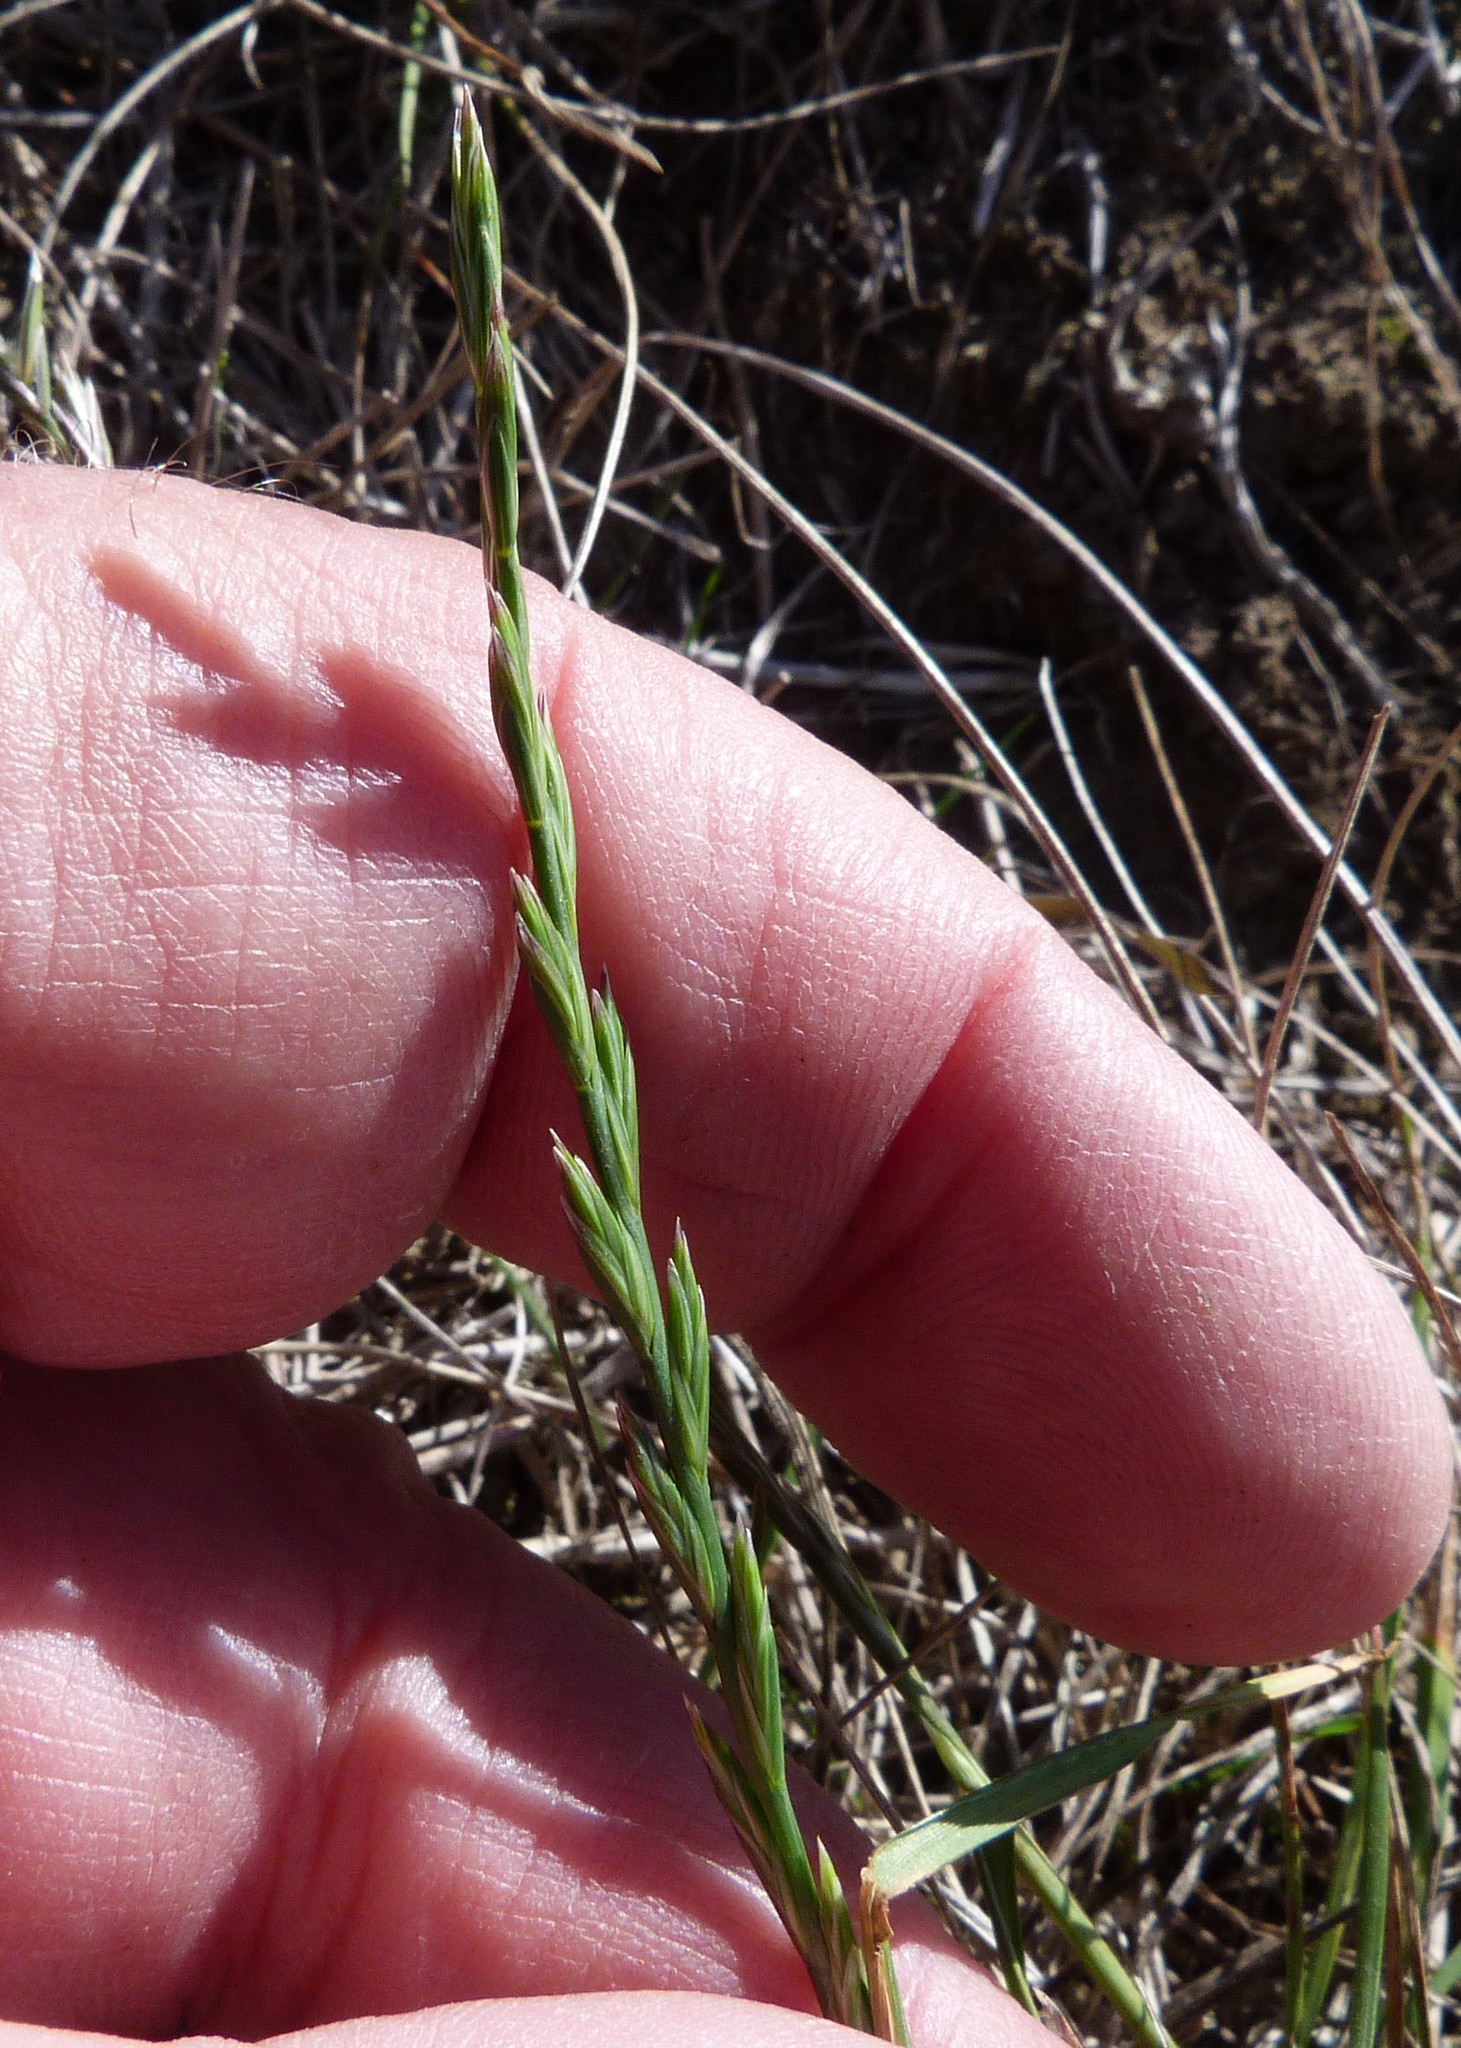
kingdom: Plantae
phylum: Tracheophyta
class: Liliopsida
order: Poales
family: Poaceae
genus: Lolium
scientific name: Lolium perenne
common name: Perennial ryegrass
